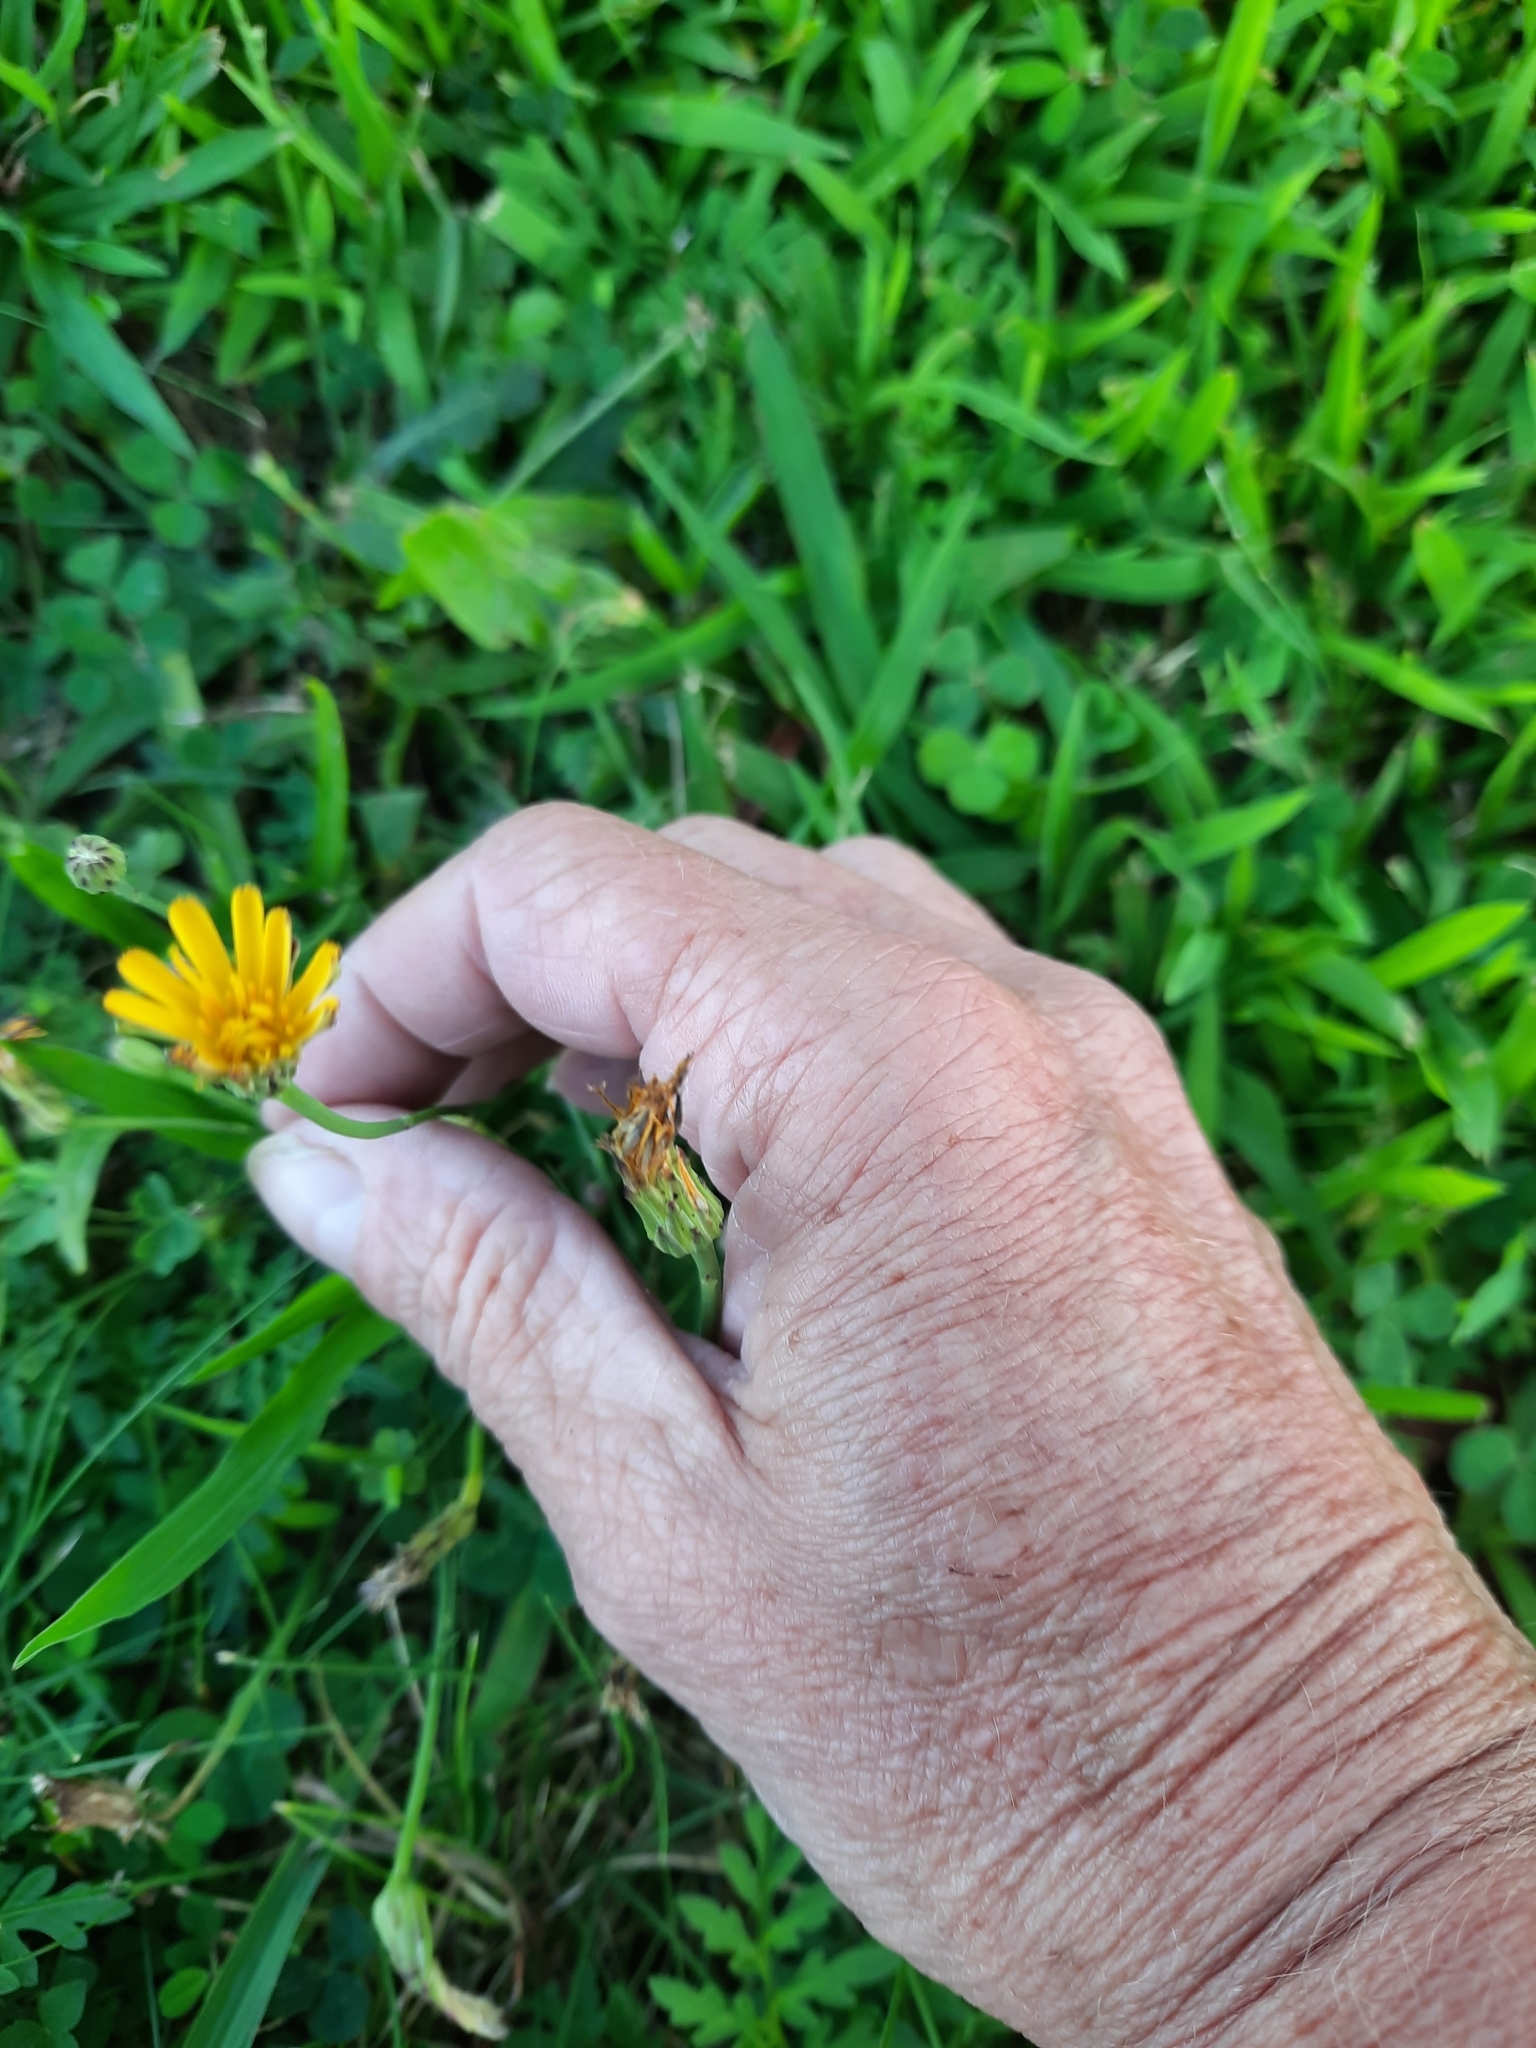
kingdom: Plantae
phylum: Tracheophyta
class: Magnoliopsida
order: Asterales
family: Asteraceae
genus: Hypochaeris
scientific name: Hypochaeris radicata
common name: Flatweed
